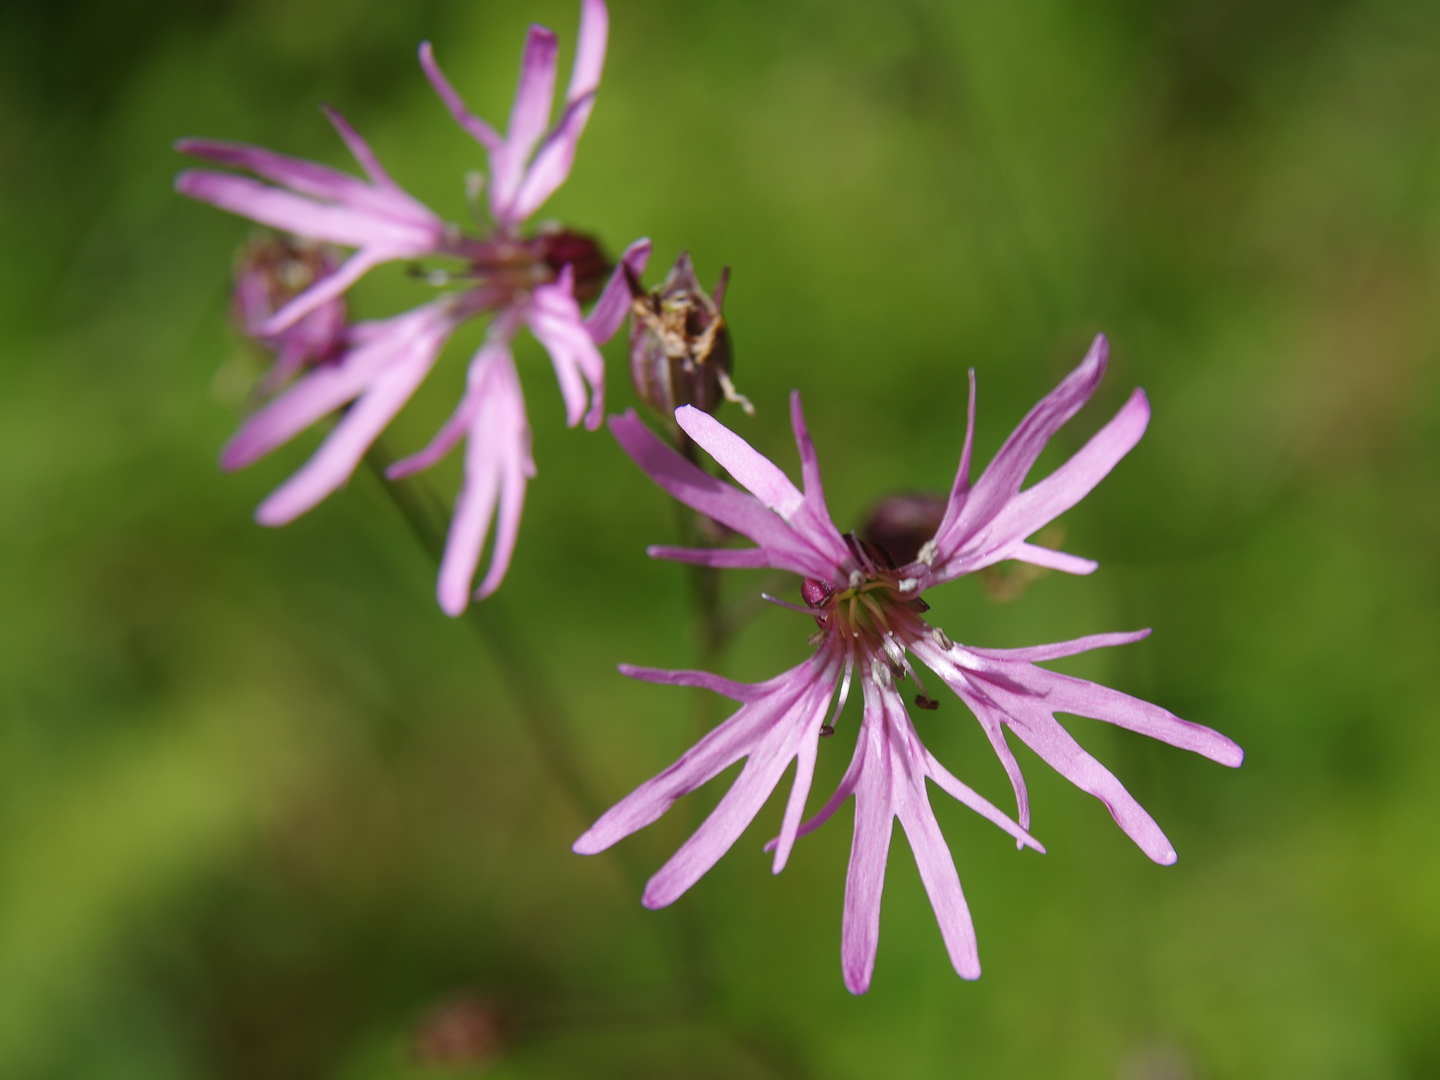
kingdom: Plantae
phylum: Tracheophyta
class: Magnoliopsida
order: Caryophyllales
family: Caryophyllaceae
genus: Silene
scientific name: Silene flos-cuculi
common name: Ragged-robin
